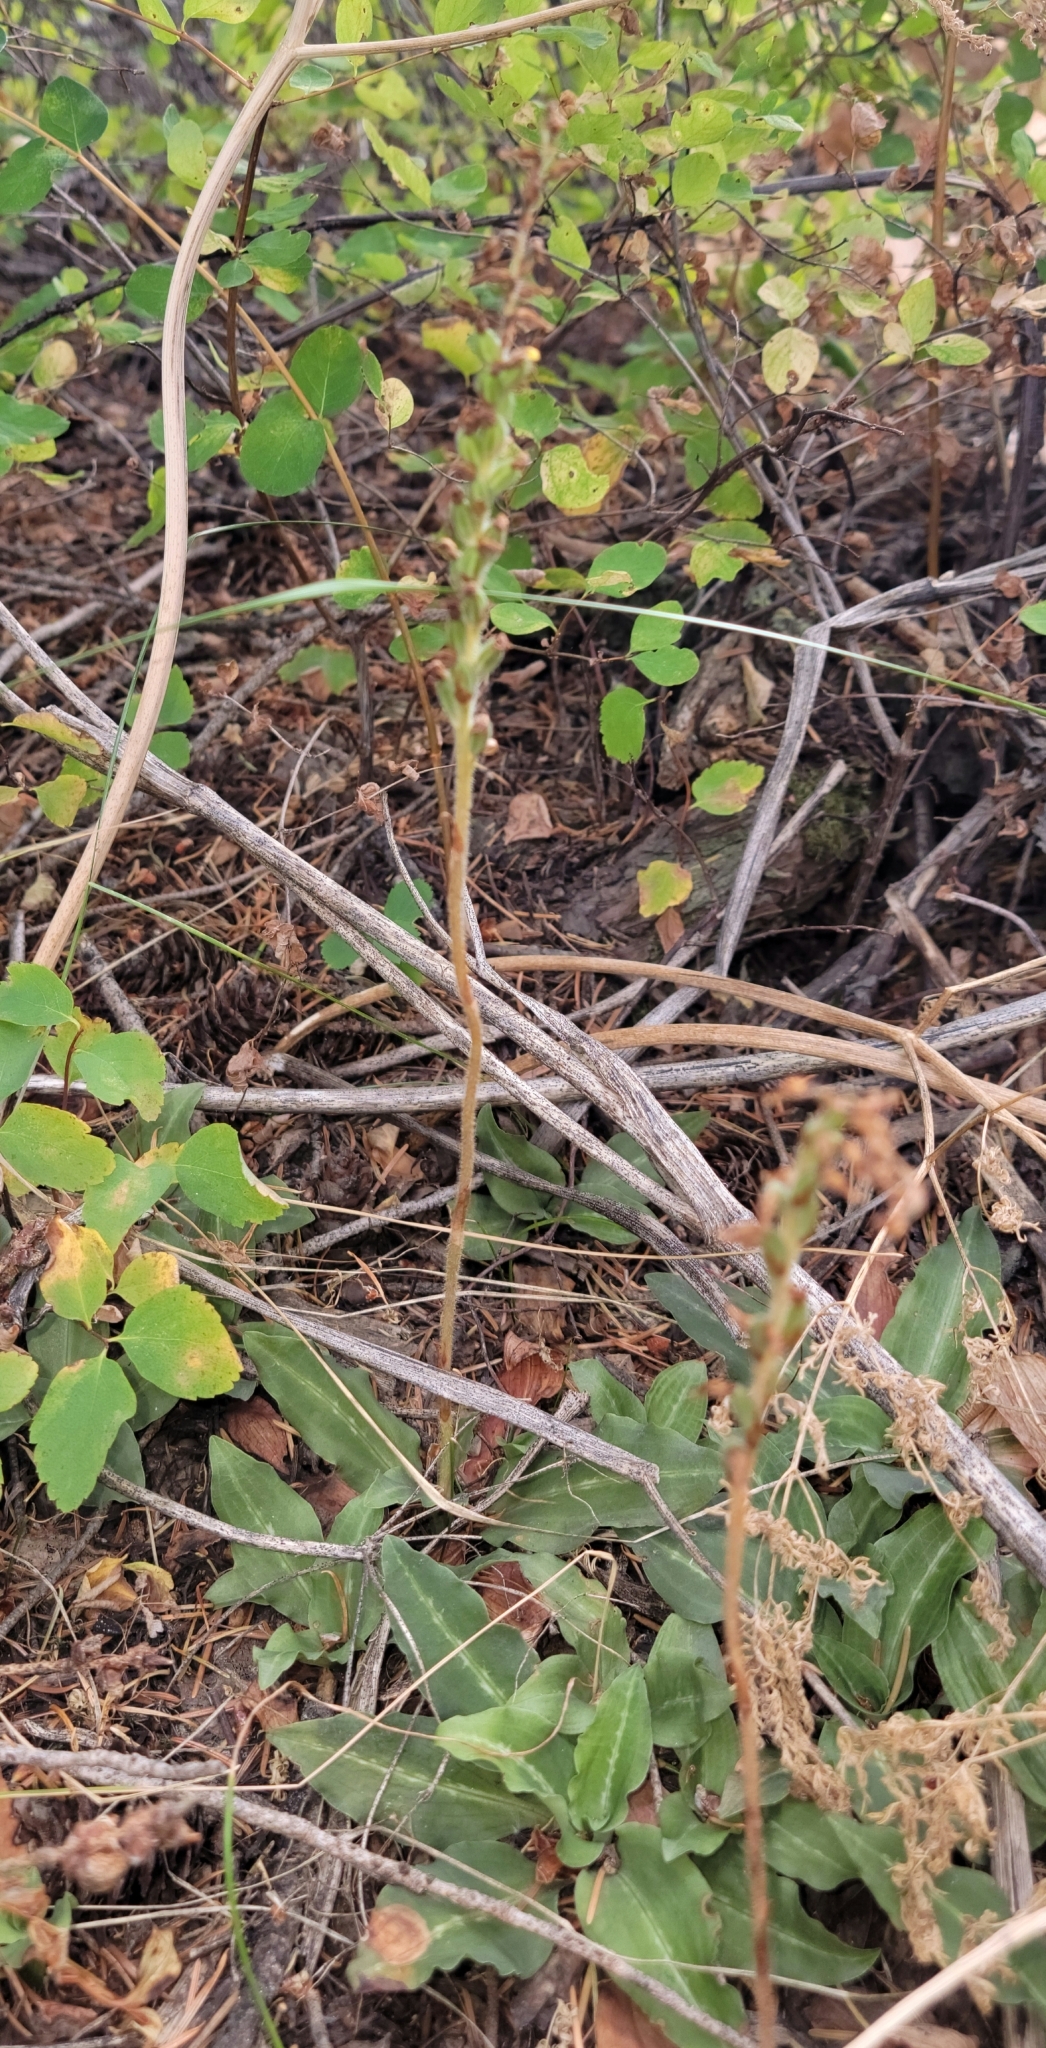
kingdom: Plantae
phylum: Tracheophyta
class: Liliopsida
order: Asparagales
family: Orchidaceae
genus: Goodyera
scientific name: Goodyera oblongifolia
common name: Giant rattlesnake-plantain
